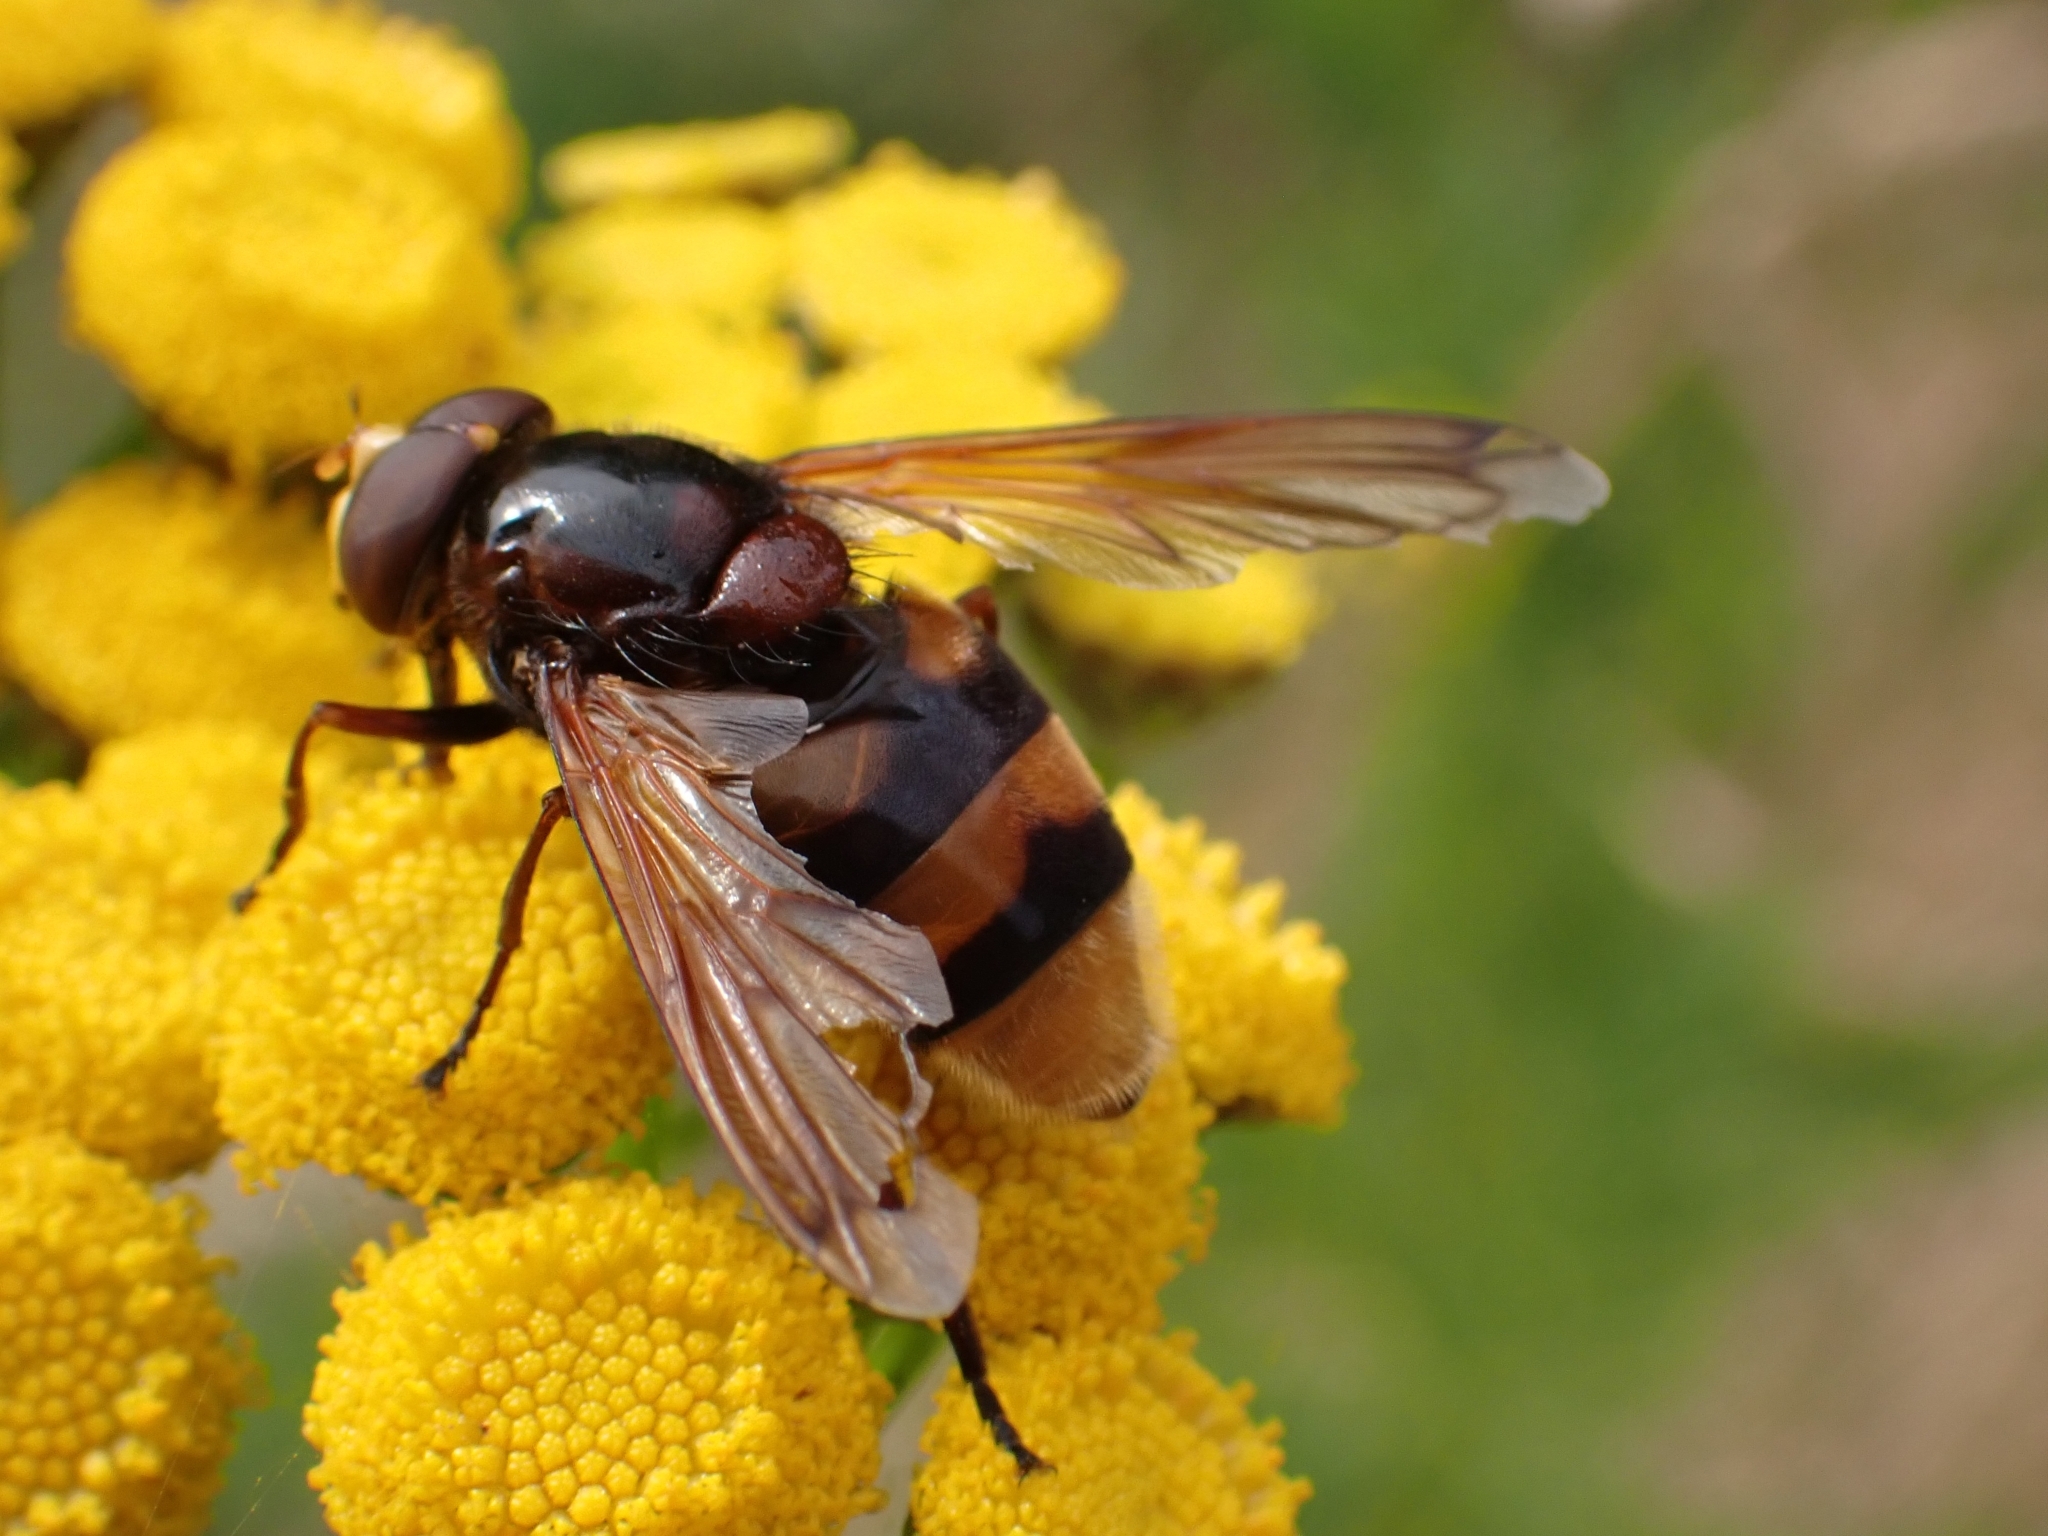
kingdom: Animalia
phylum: Arthropoda
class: Insecta
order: Diptera
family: Syrphidae
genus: Volucella
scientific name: Volucella zonaria
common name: Hornet hoverfly
